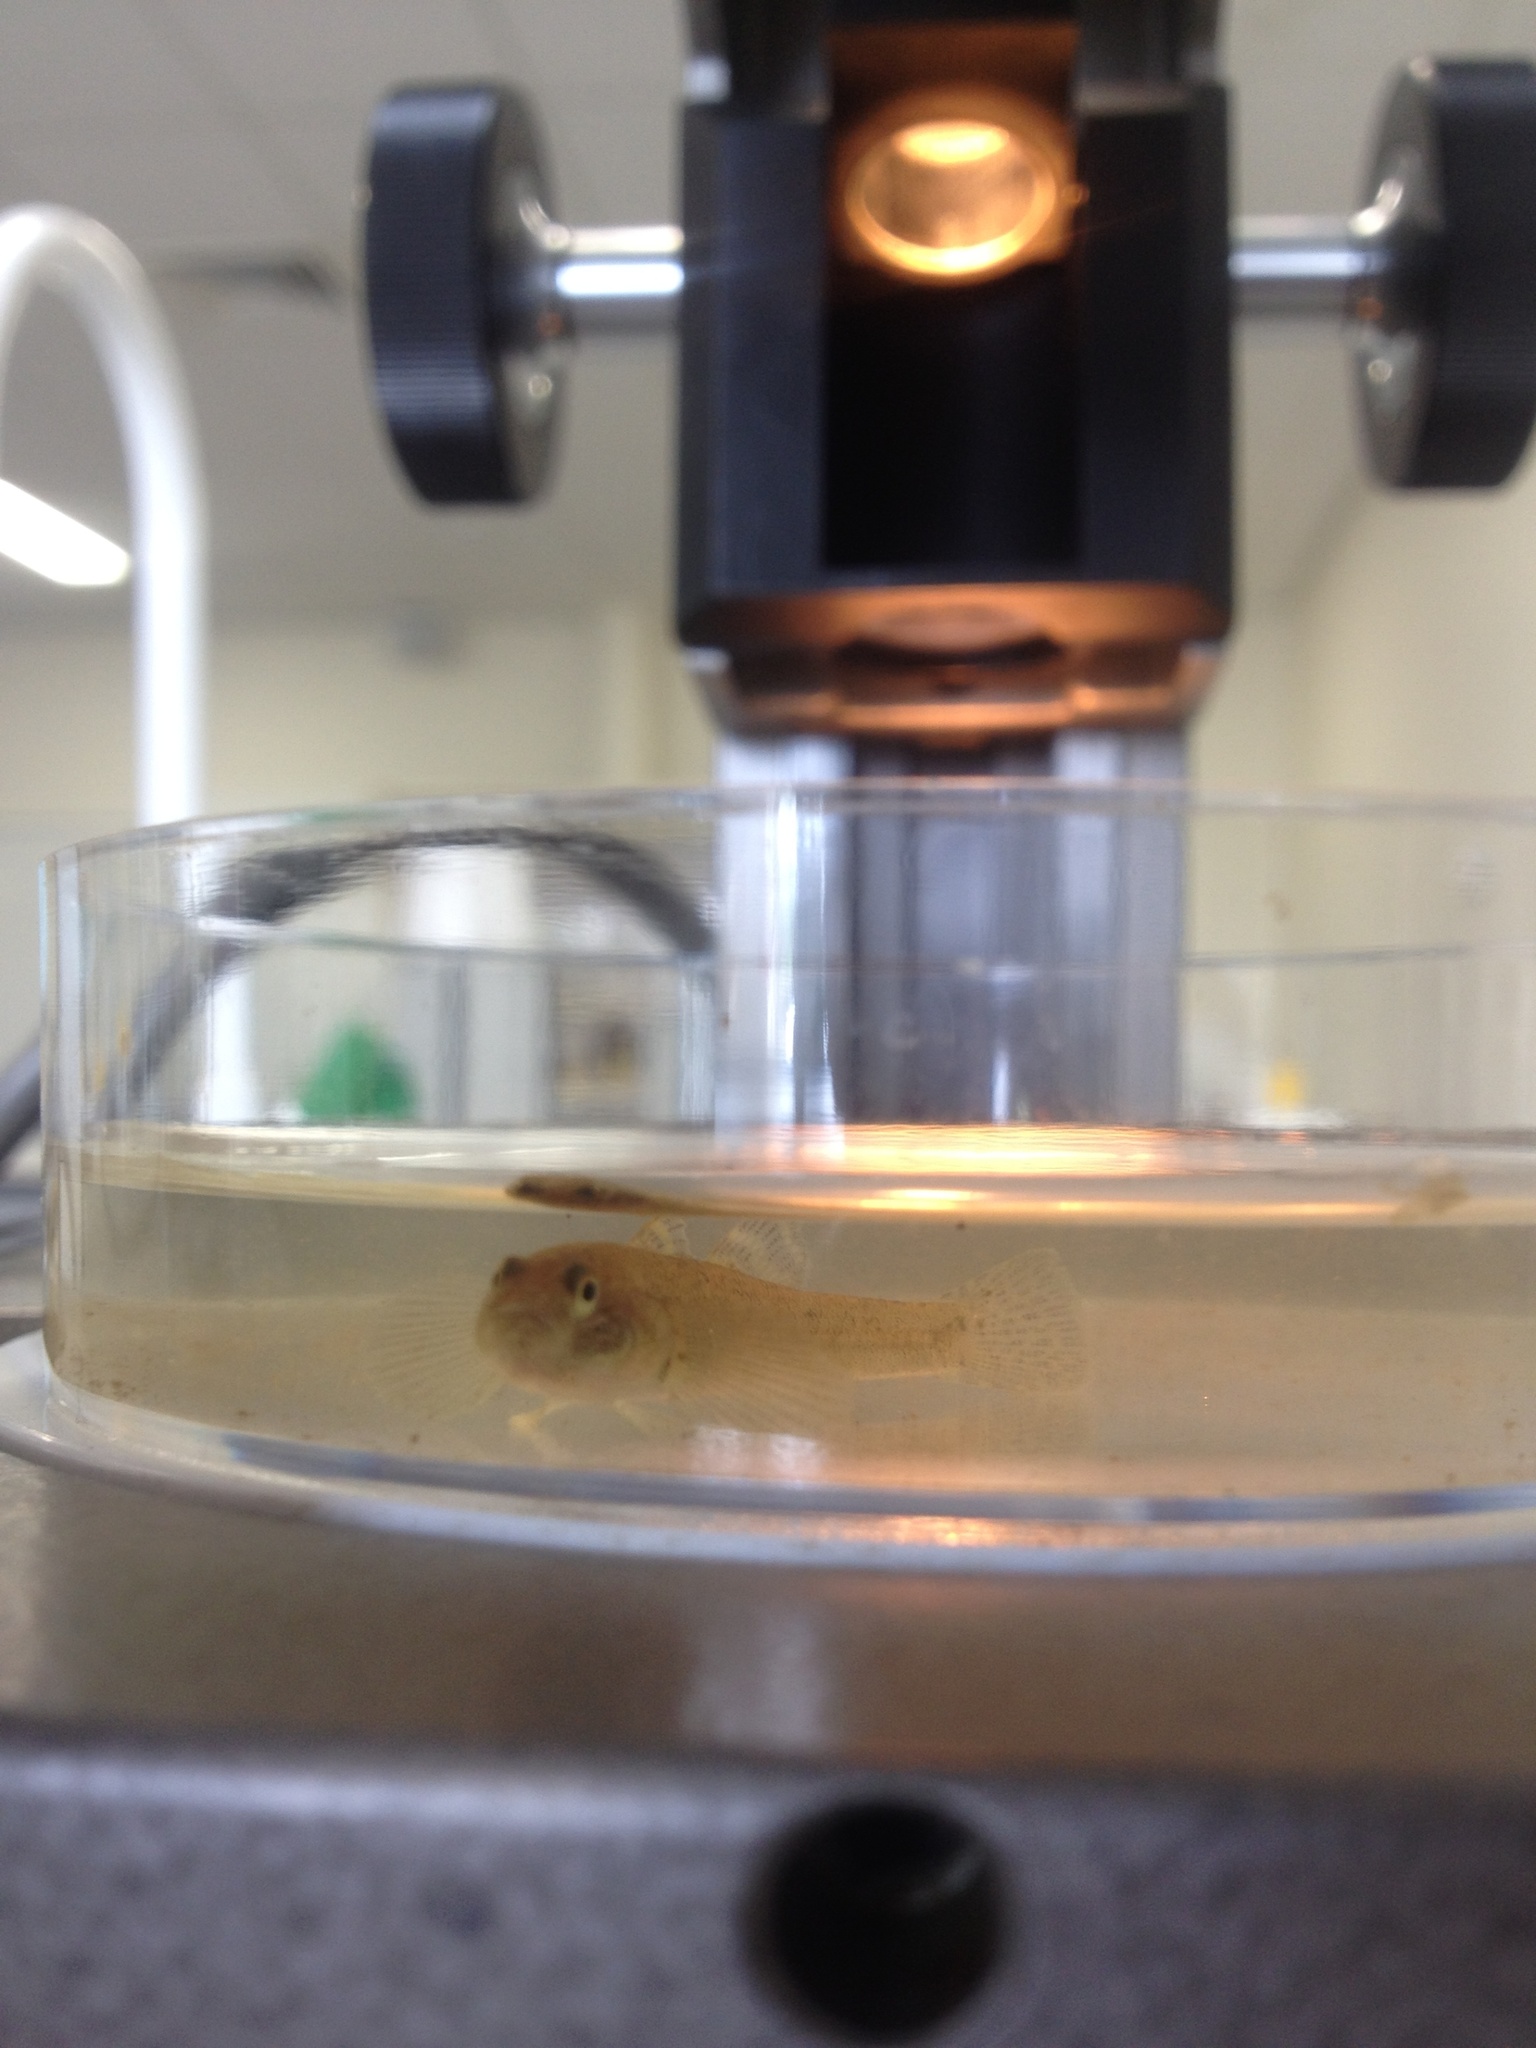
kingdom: Animalia
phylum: Chordata
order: Perciformes
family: Eleotridae
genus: Gobiomorphus
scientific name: Gobiomorphus cotidianus
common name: Common bully
